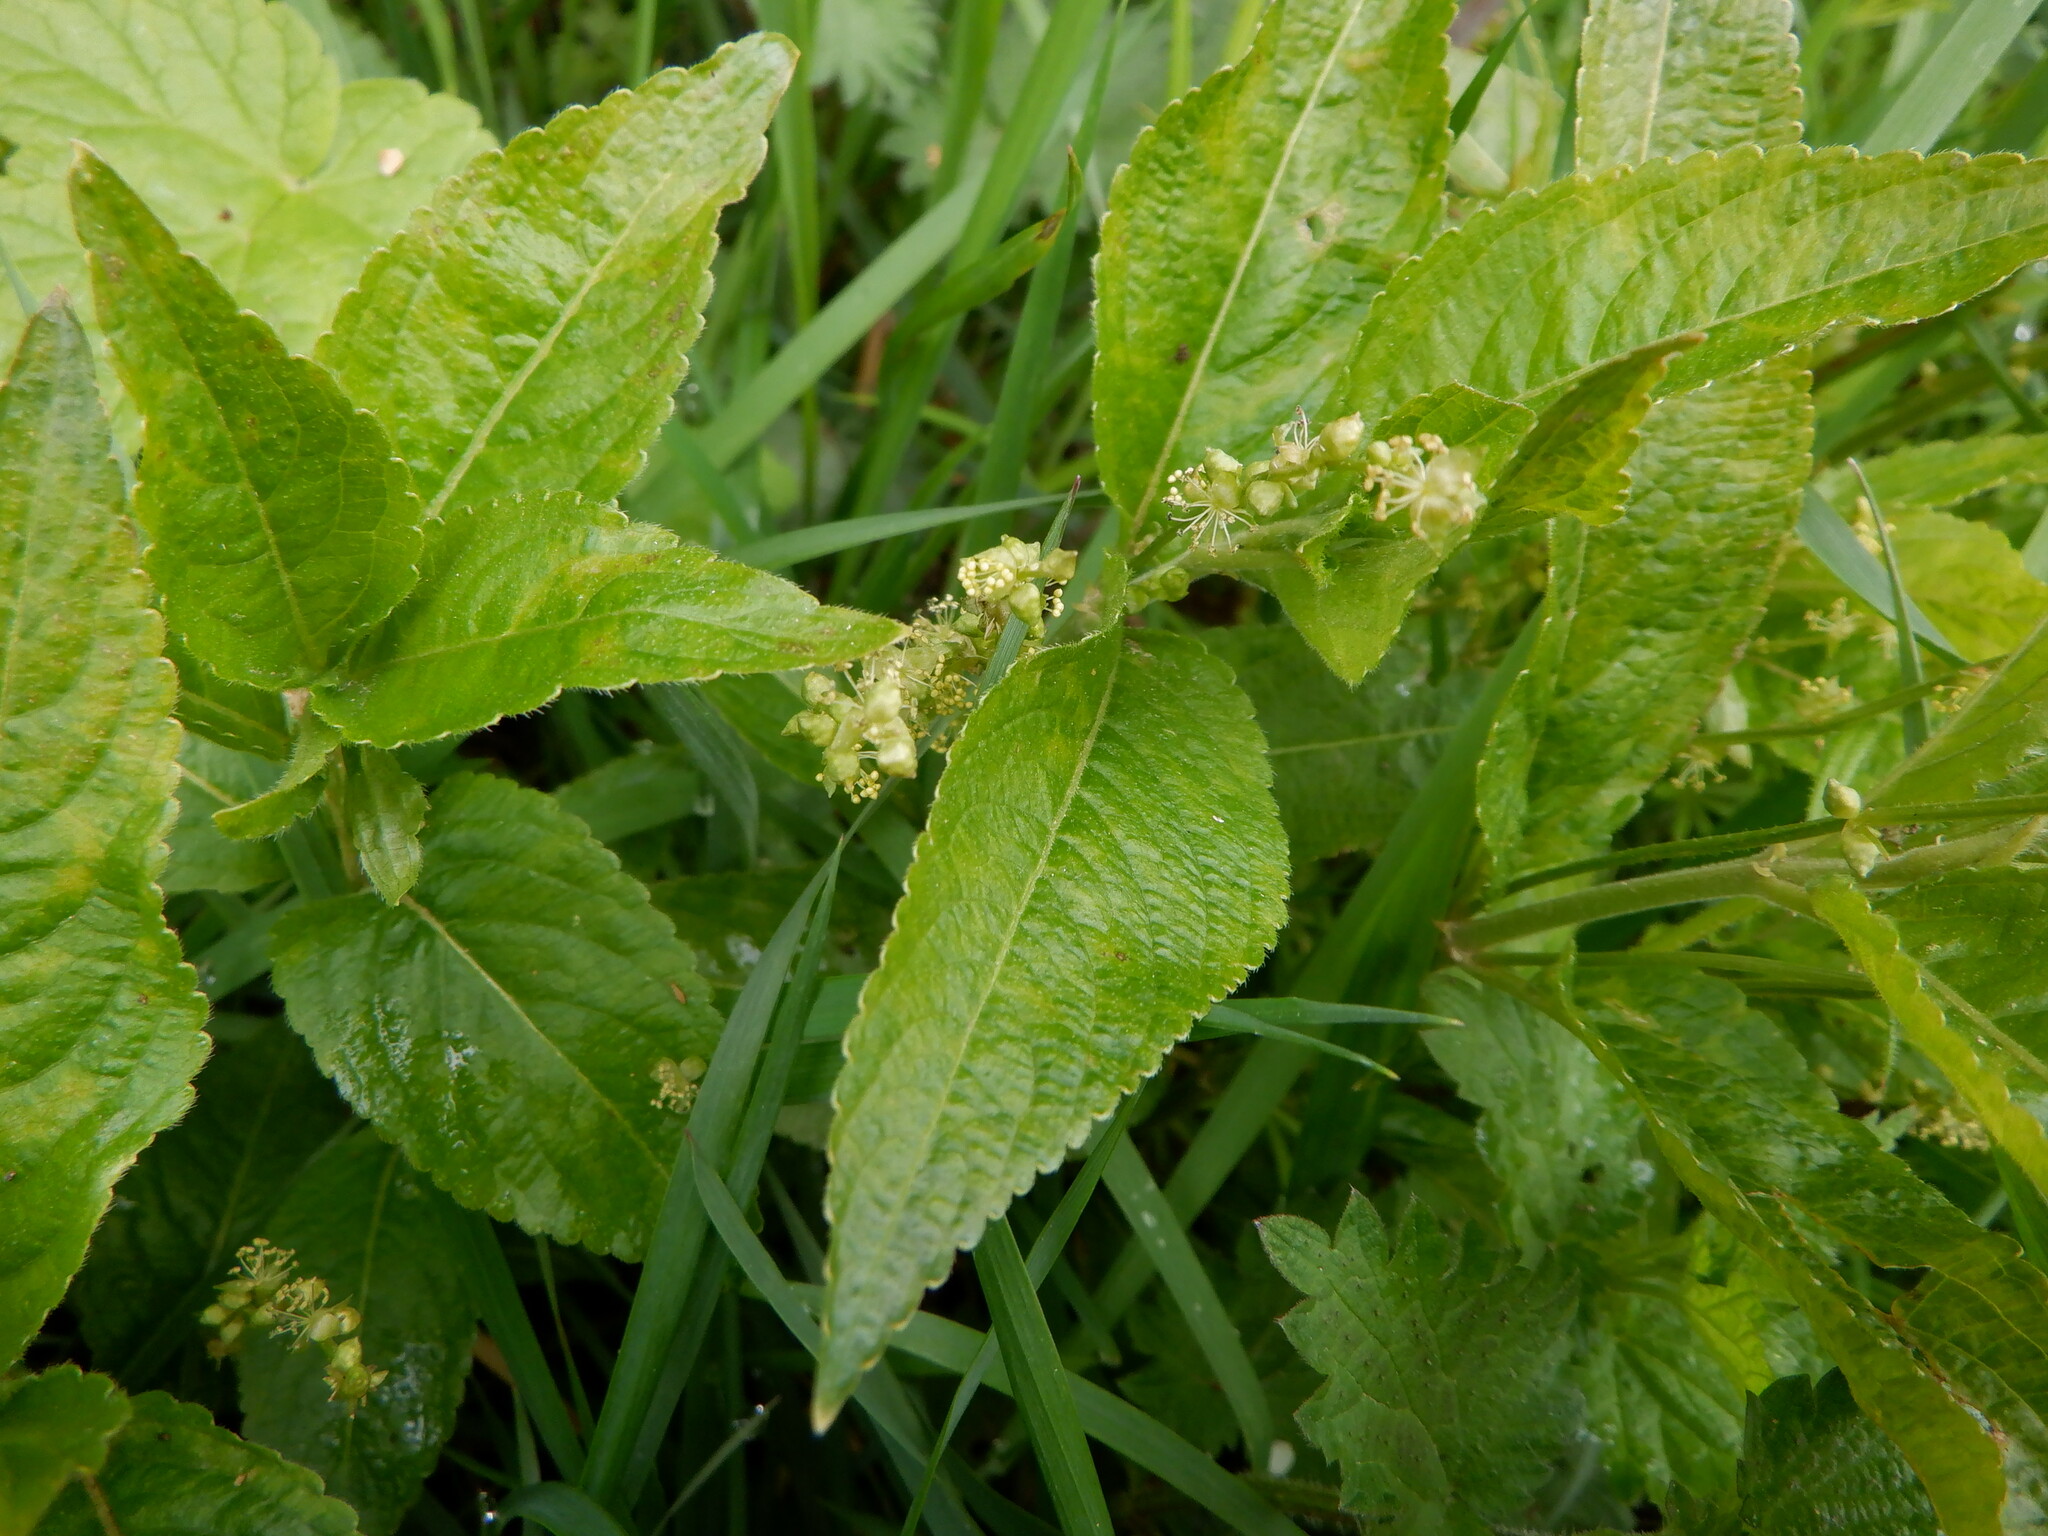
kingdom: Plantae
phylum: Tracheophyta
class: Magnoliopsida
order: Malpighiales
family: Euphorbiaceae
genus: Mercurialis
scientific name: Mercurialis perennis
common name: Dog mercury
